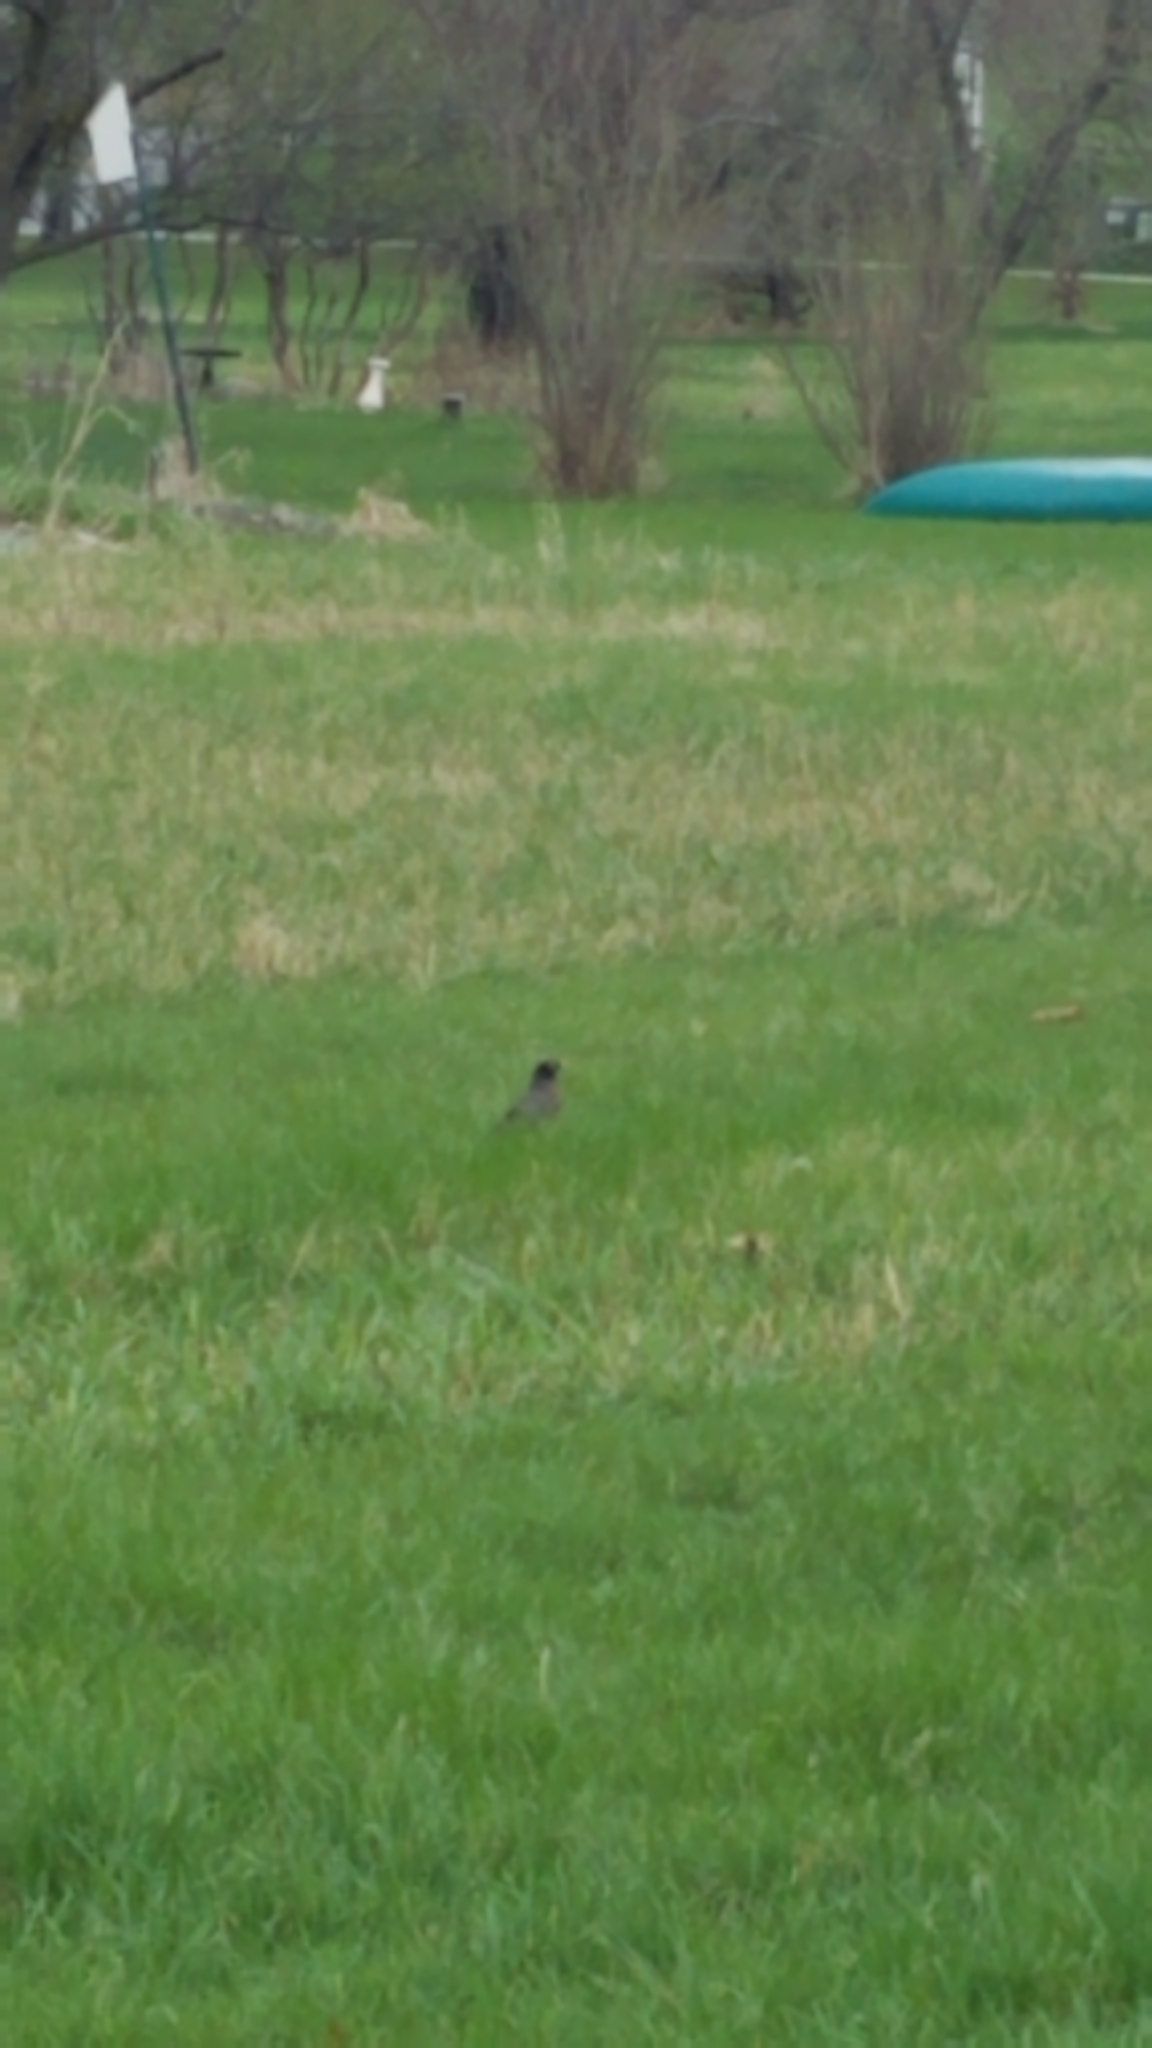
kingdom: Animalia
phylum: Chordata
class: Aves
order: Passeriformes
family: Turdidae
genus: Turdus
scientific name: Turdus migratorius
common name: American robin
